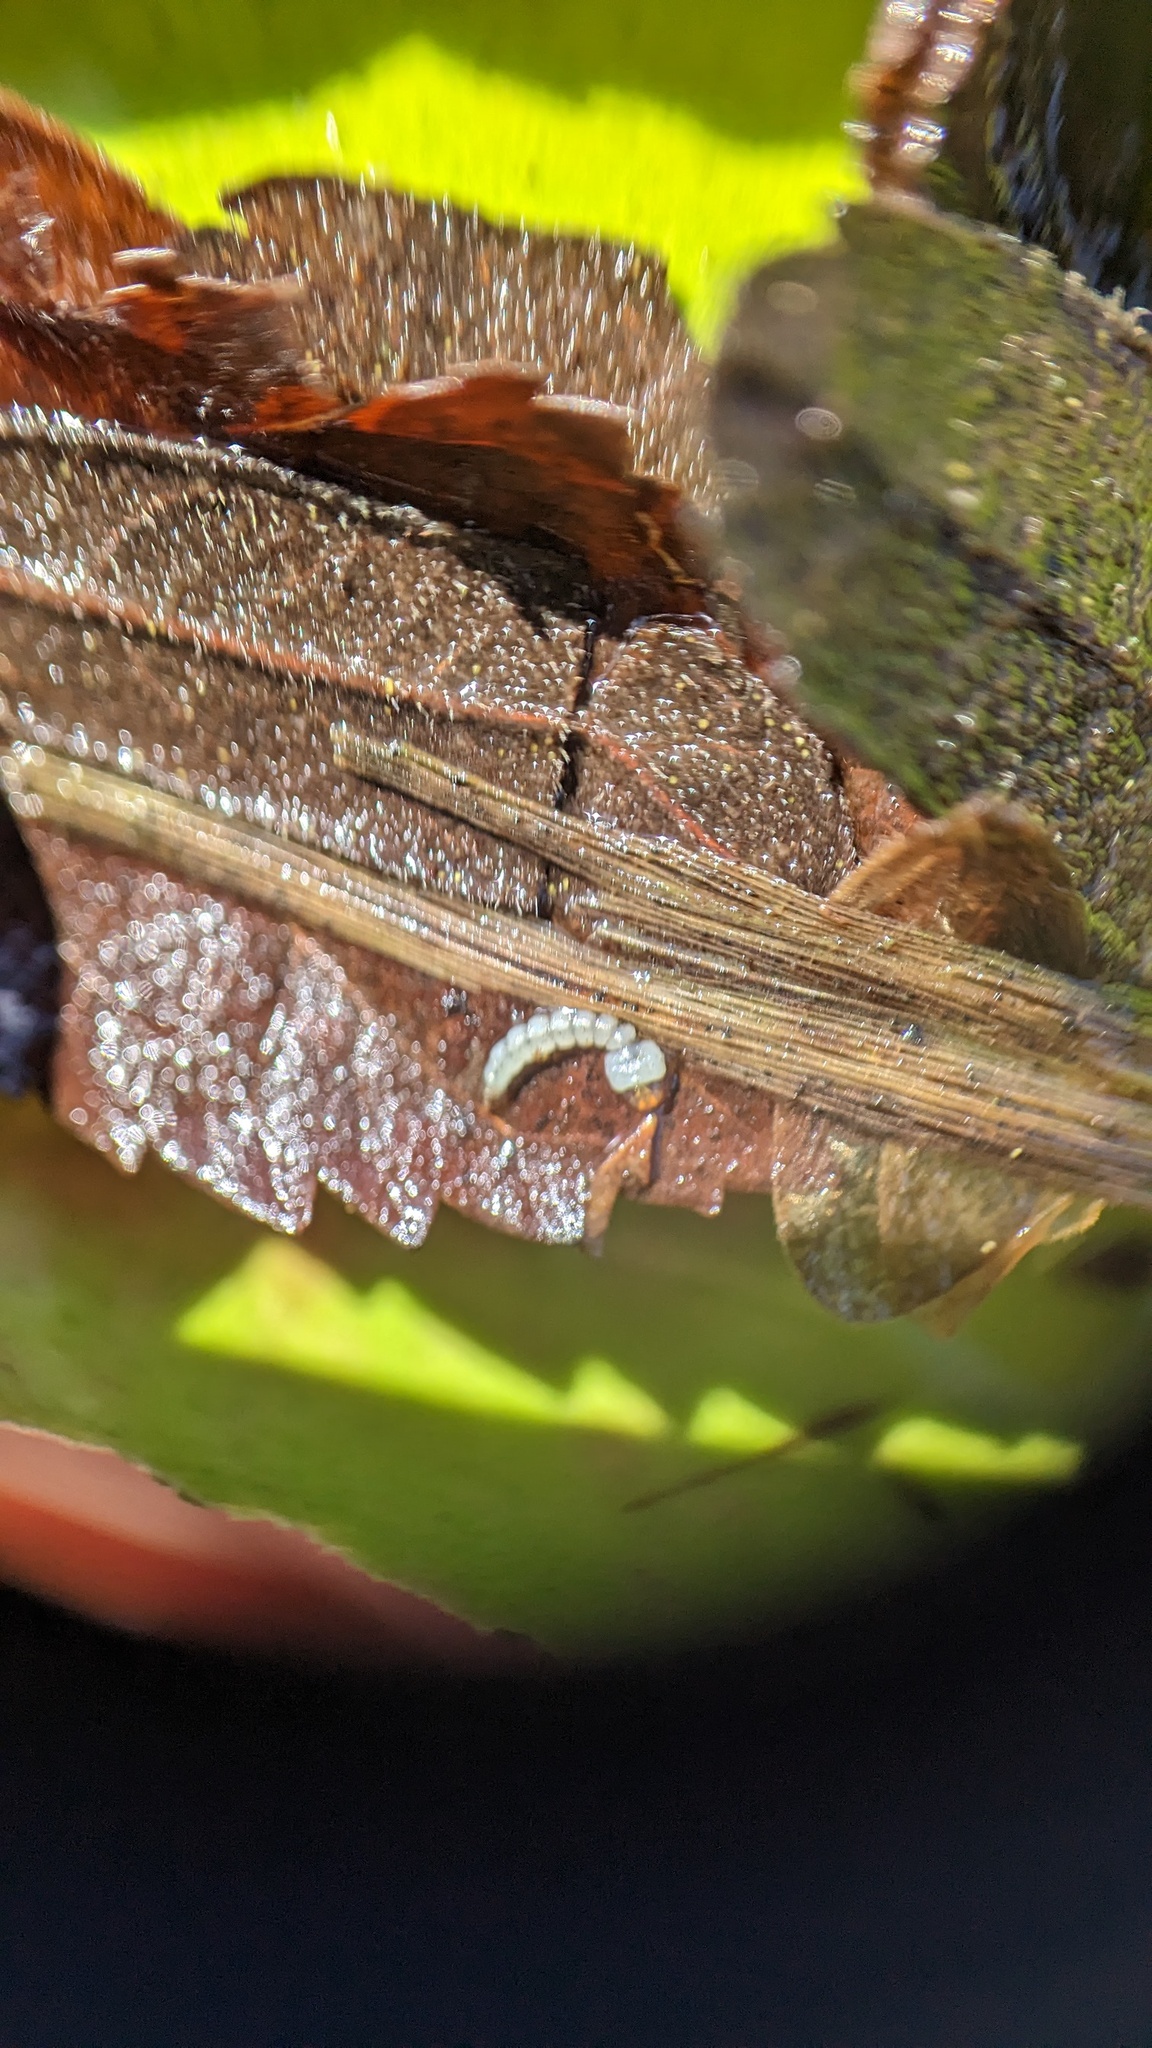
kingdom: Animalia
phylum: Arthropoda
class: Insecta
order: Diptera
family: Culicidae
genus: Wyeomyia
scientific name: Wyeomyia smithii
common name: Pitcher-plant mosquito
